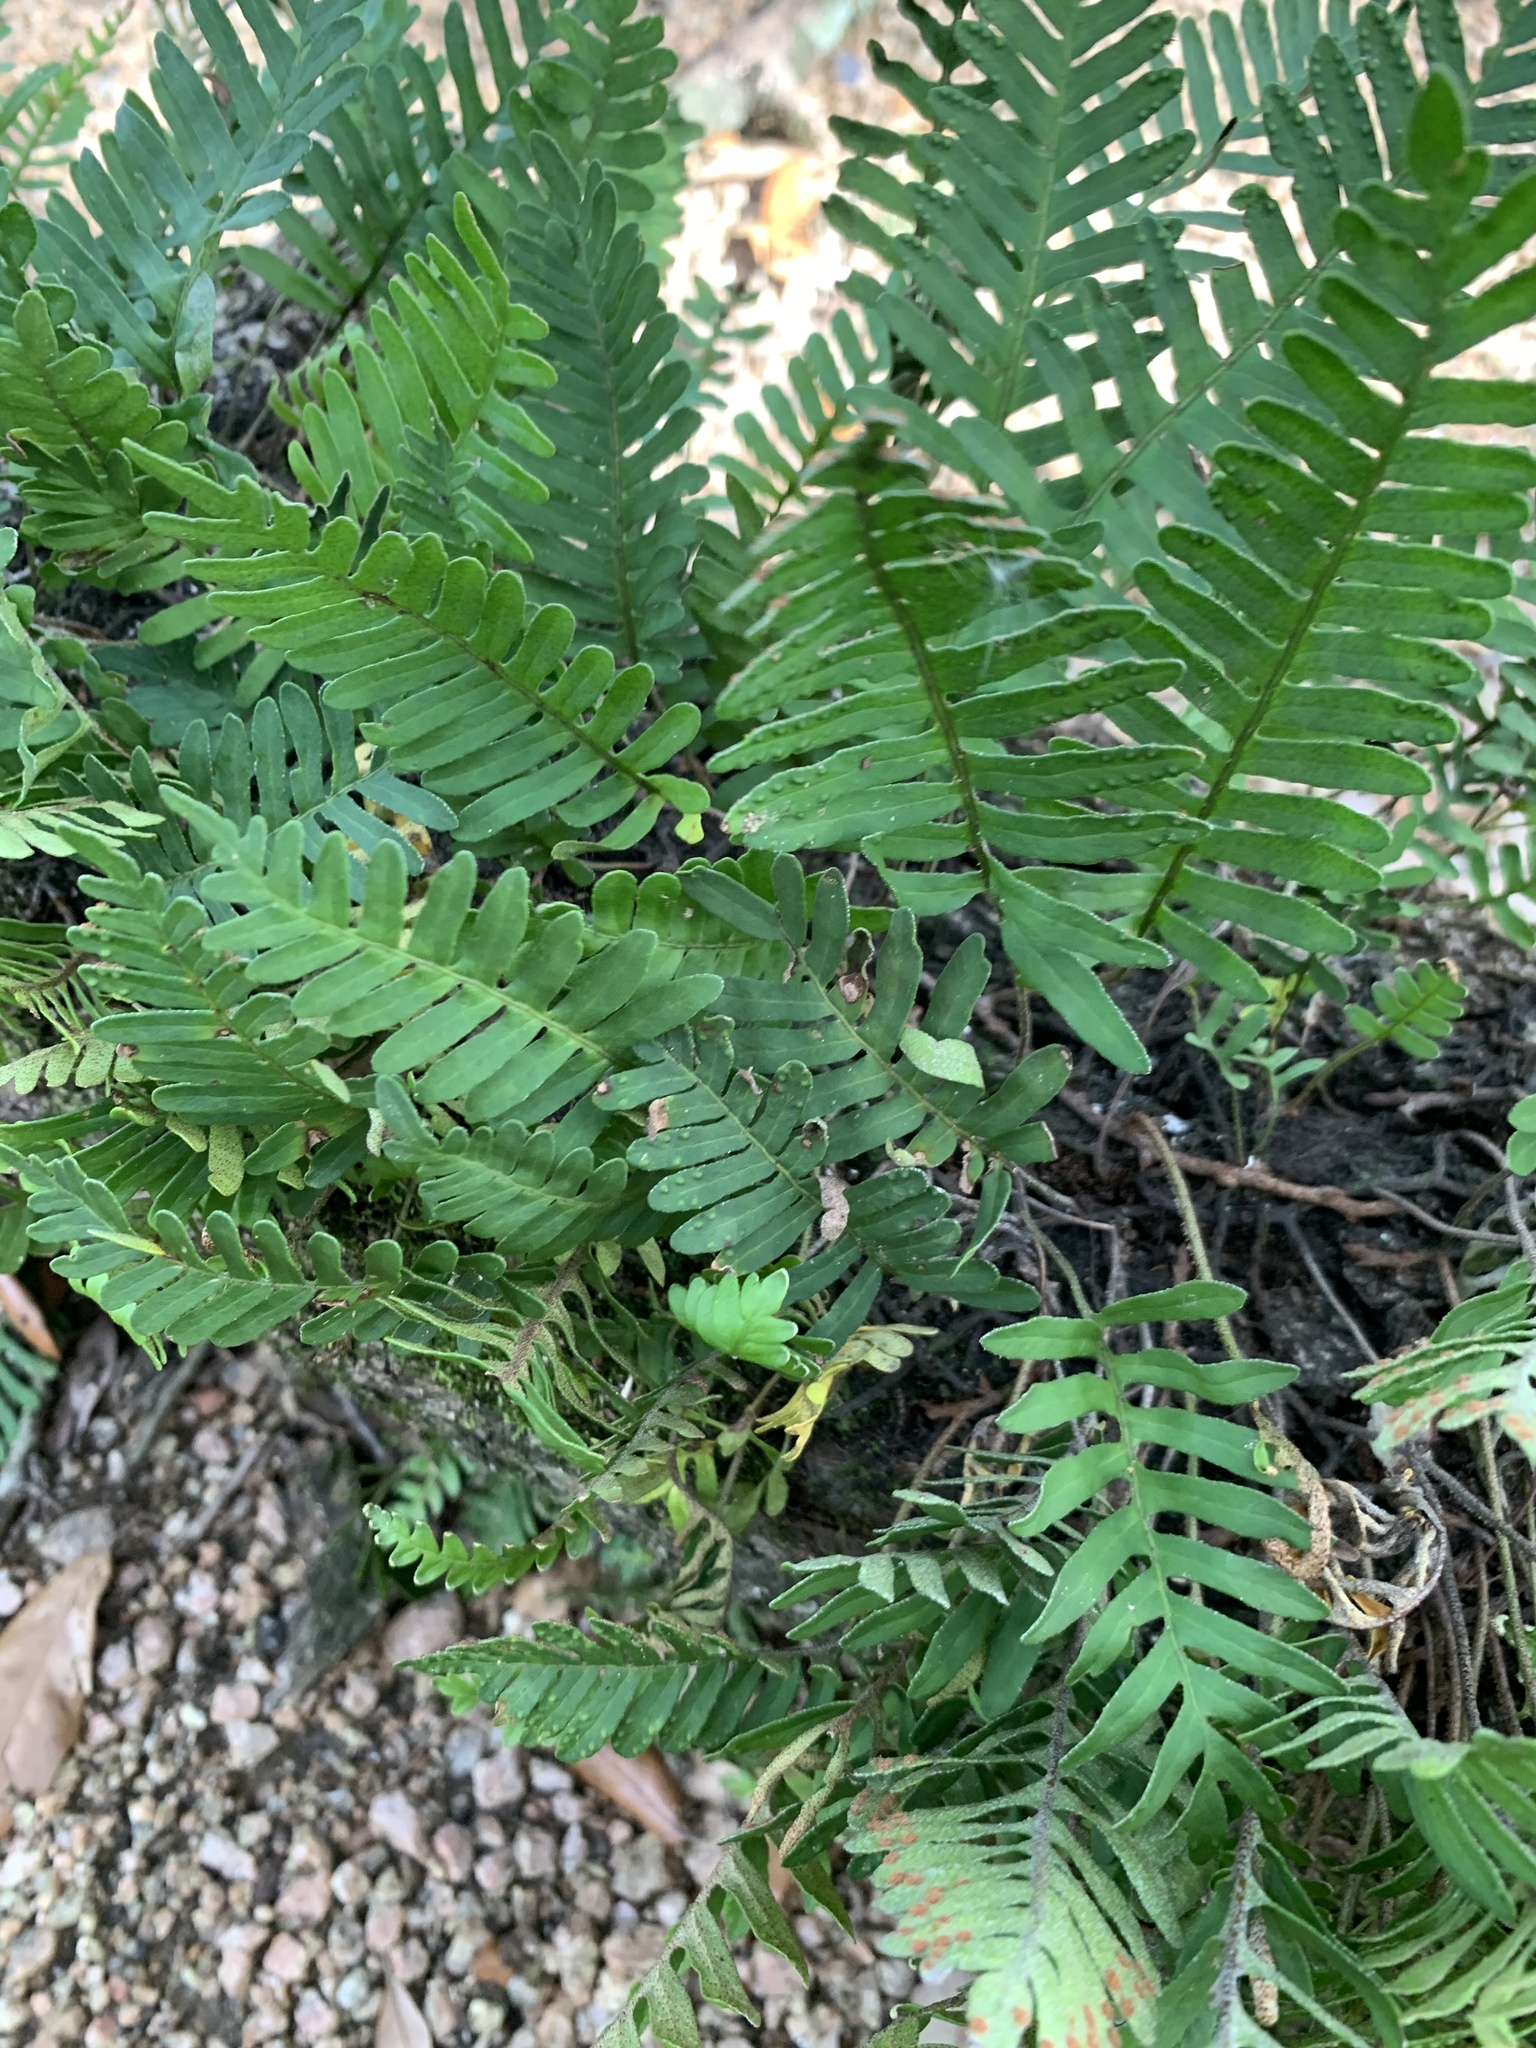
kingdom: Plantae
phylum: Tracheophyta
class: Polypodiopsida
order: Polypodiales
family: Polypodiaceae
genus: Pleopeltis
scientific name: Pleopeltis michauxiana
